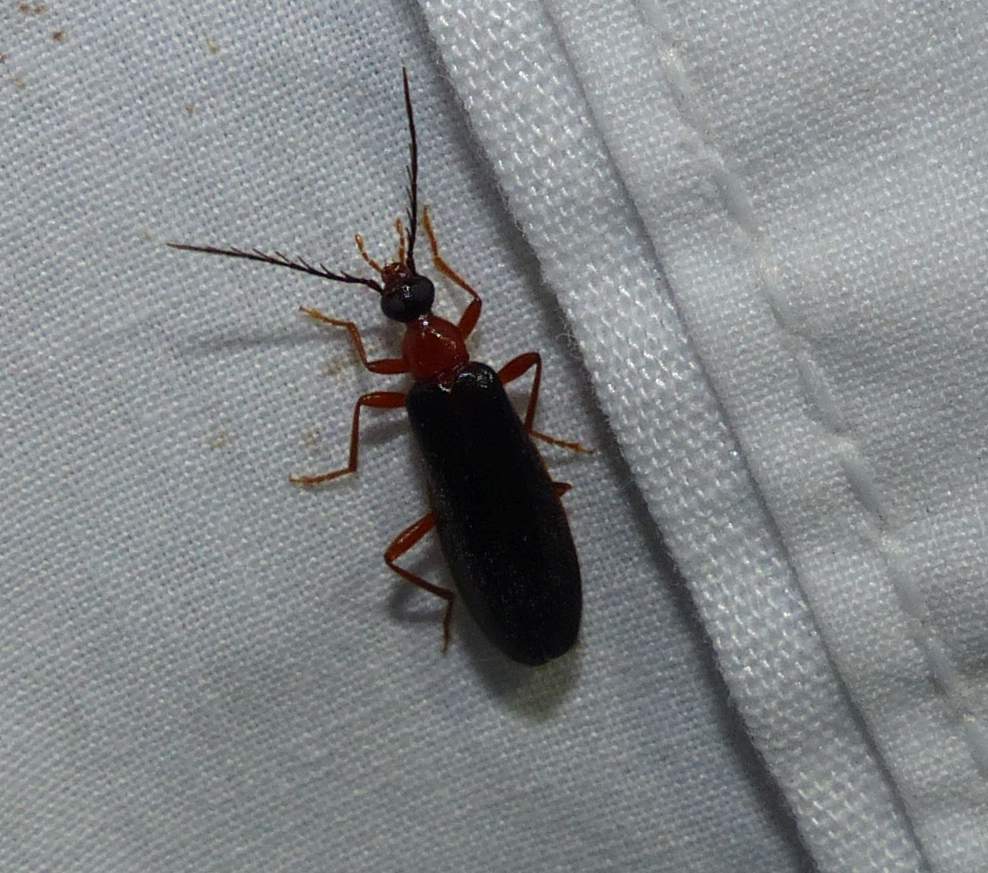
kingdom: Animalia
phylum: Arthropoda
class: Insecta
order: Coleoptera
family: Pyrochroidae
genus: Dendroides
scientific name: Dendroides canadensis
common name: Canada fire-colored beetle
